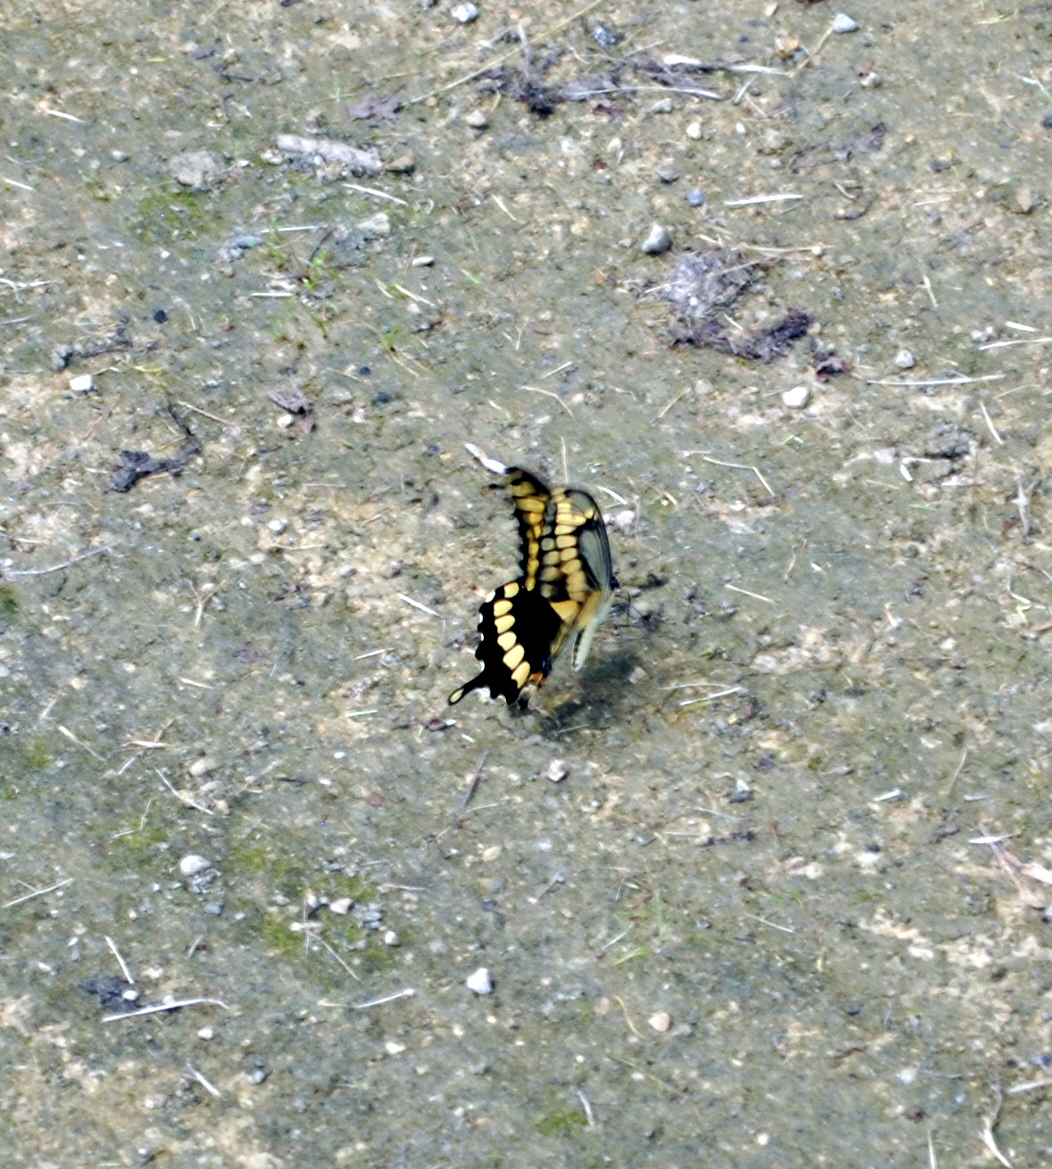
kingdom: Animalia
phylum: Arthropoda
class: Insecta
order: Lepidoptera
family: Papilionidae
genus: Papilio
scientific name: Papilio cresphontes
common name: Giant swallowtail
